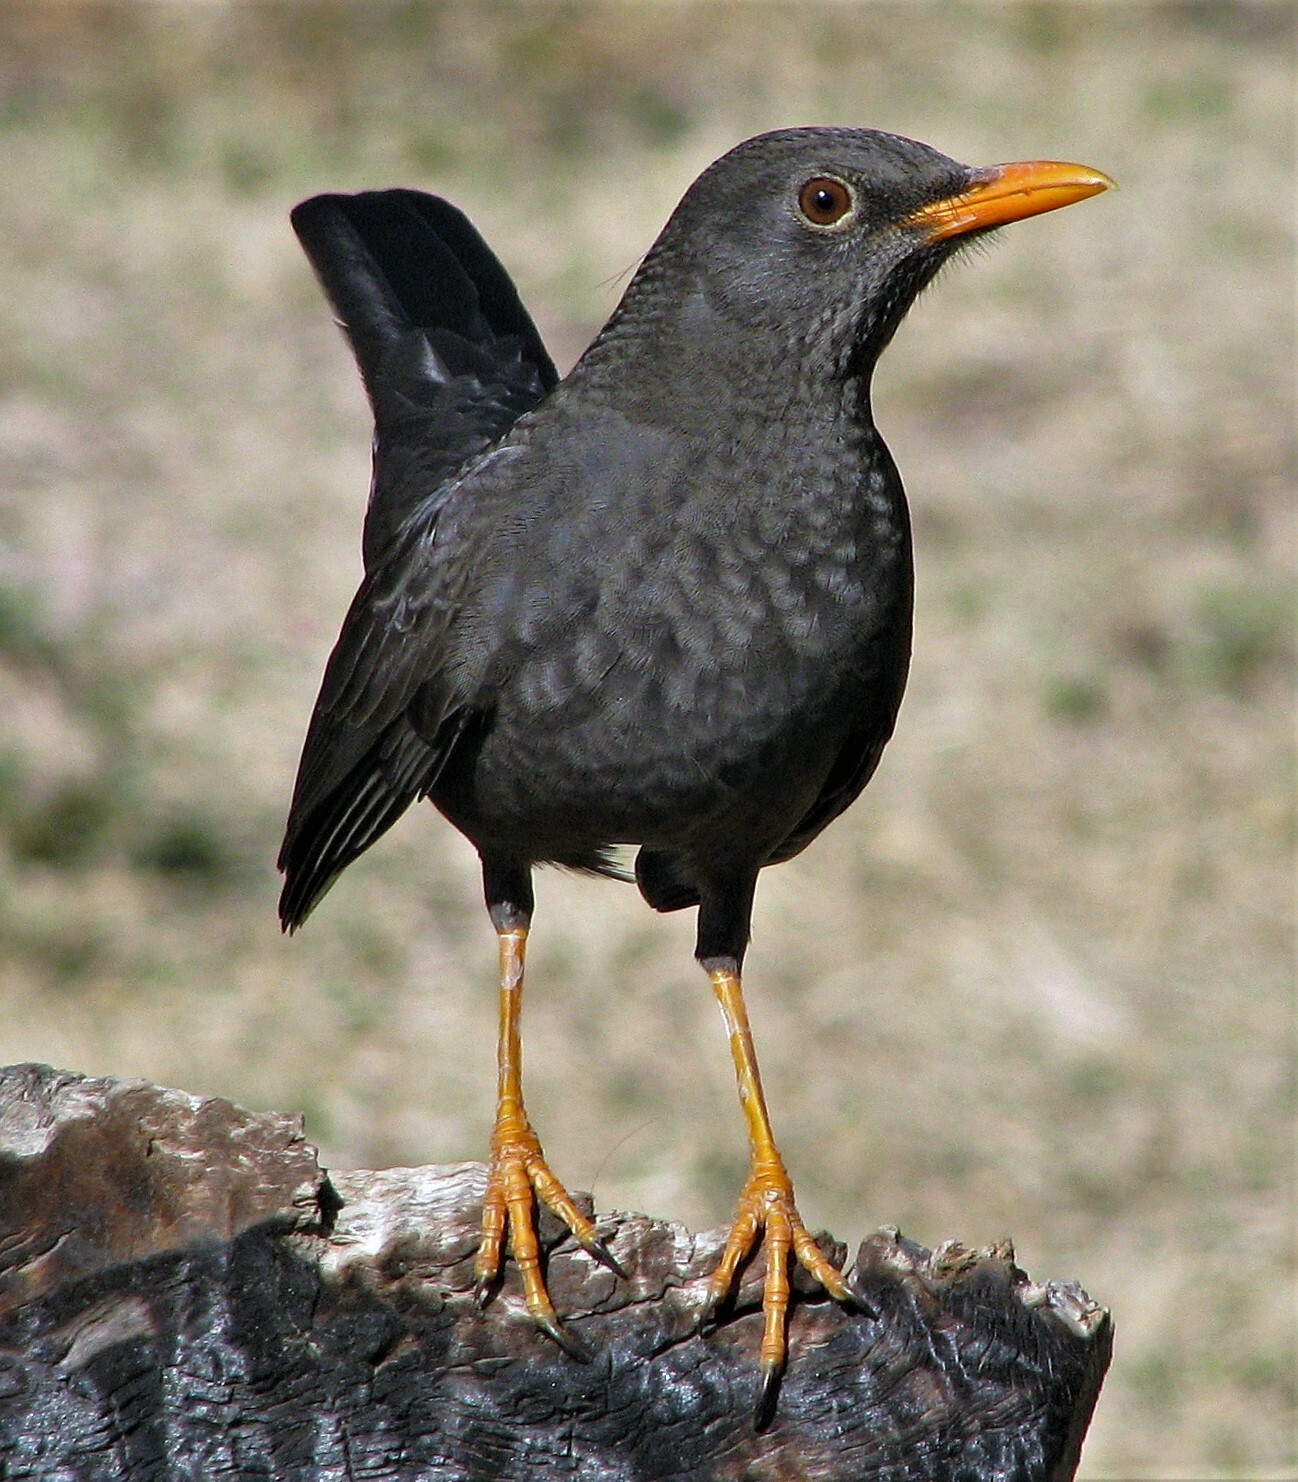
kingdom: Animalia
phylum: Chordata
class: Aves
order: Passeriformes
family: Turdidae
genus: Turdus
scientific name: Turdus chiguanco
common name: Chiguanco thrush
